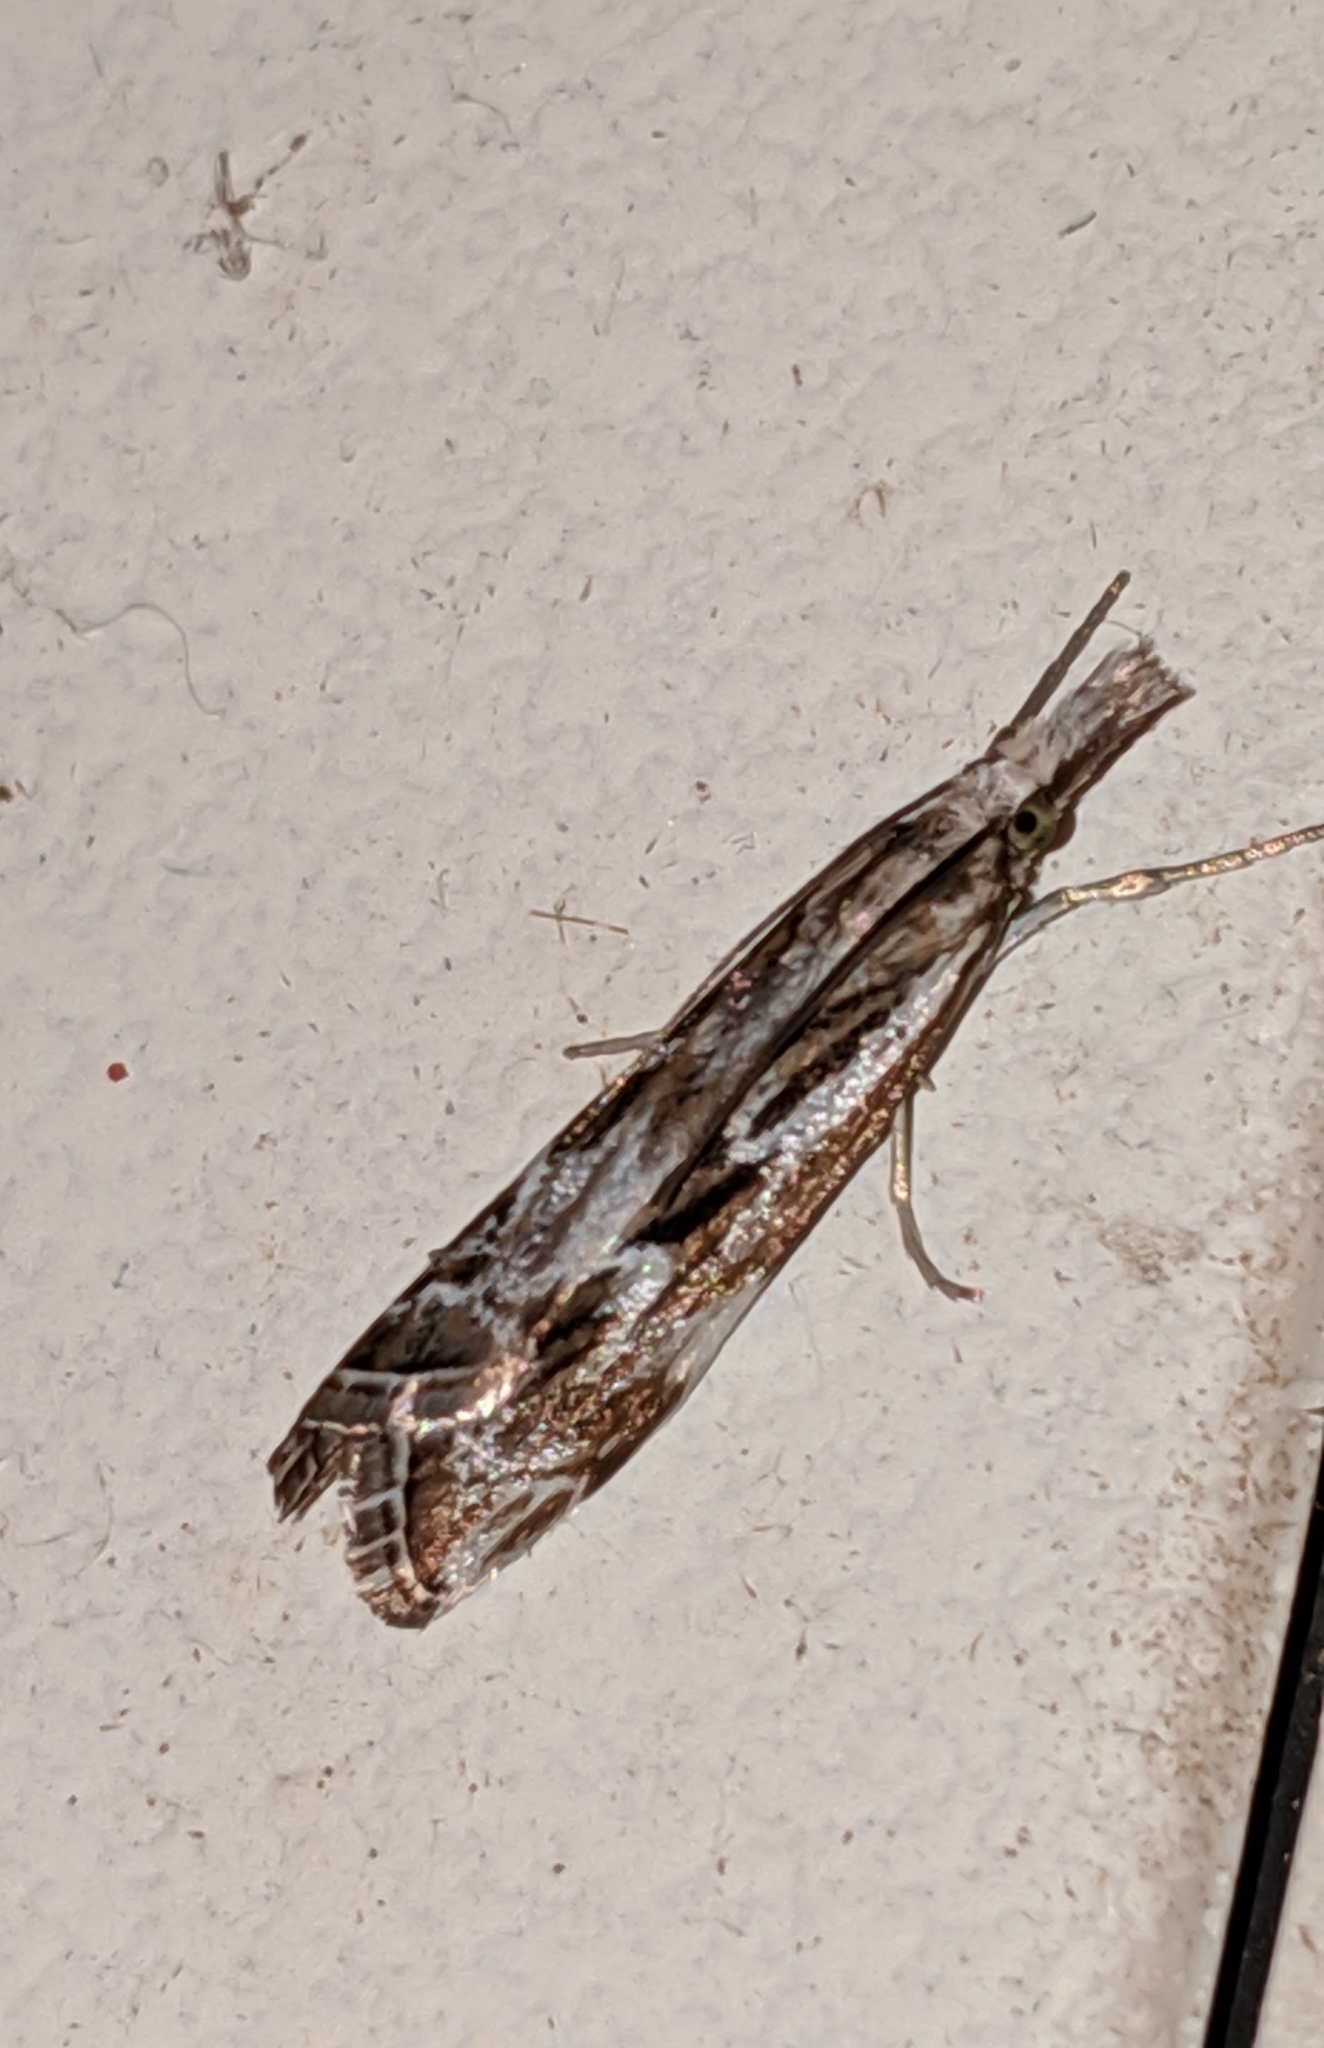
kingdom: Animalia
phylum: Arthropoda
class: Insecta
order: Lepidoptera
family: Crambidae
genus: Catoptria
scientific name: Catoptria oregonicus
